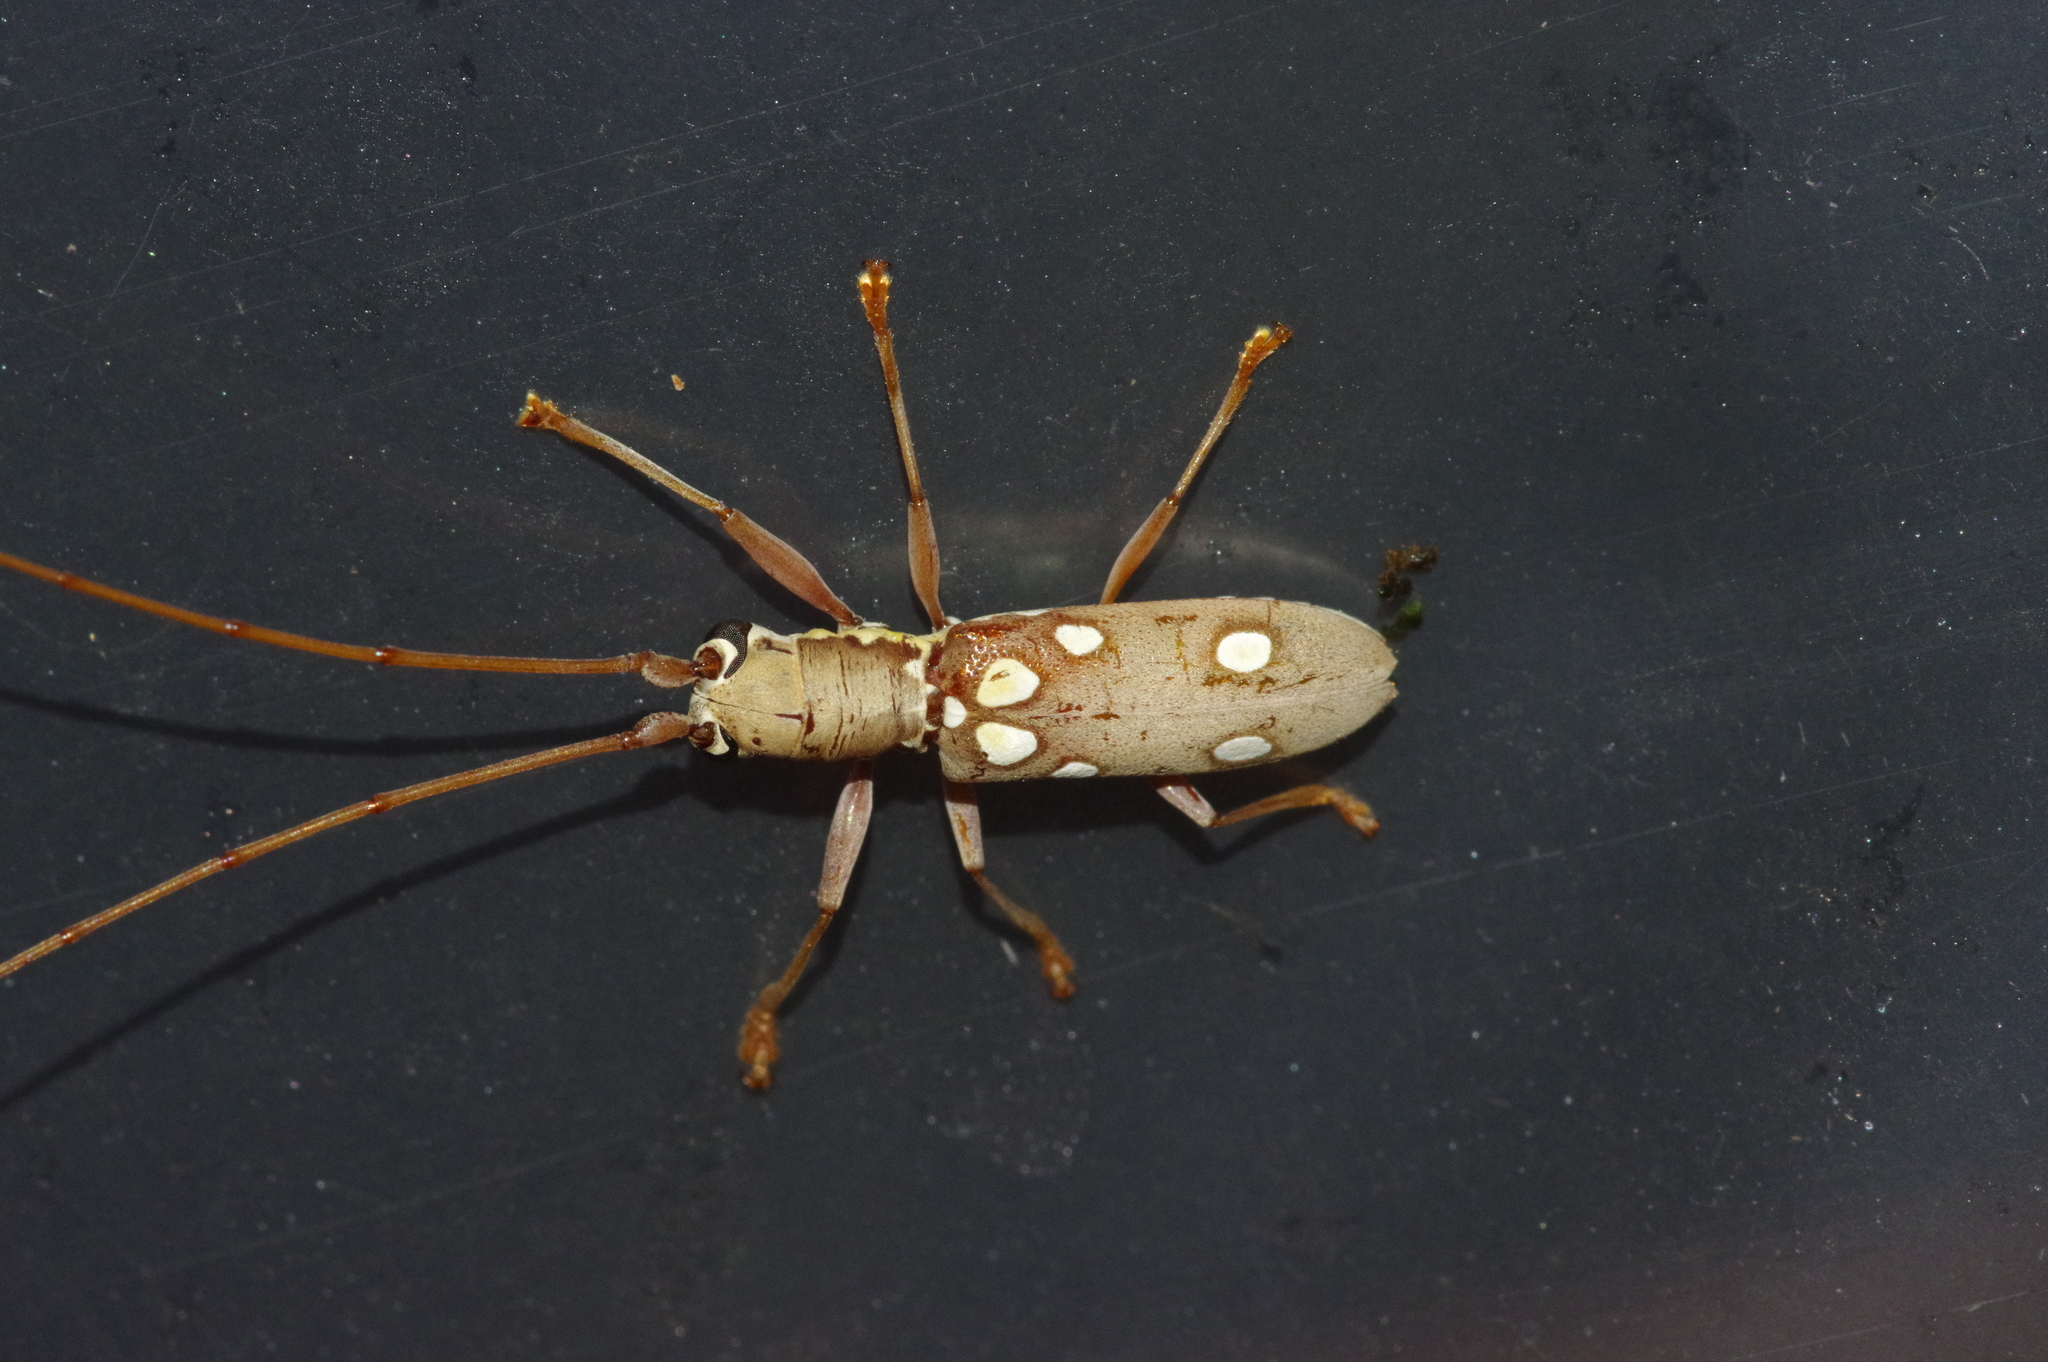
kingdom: Animalia
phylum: Arthropoda
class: Insecta
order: Coleoptera
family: Cerambycidae
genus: Olenecamptus
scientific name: Olenecamptus taiwanus
